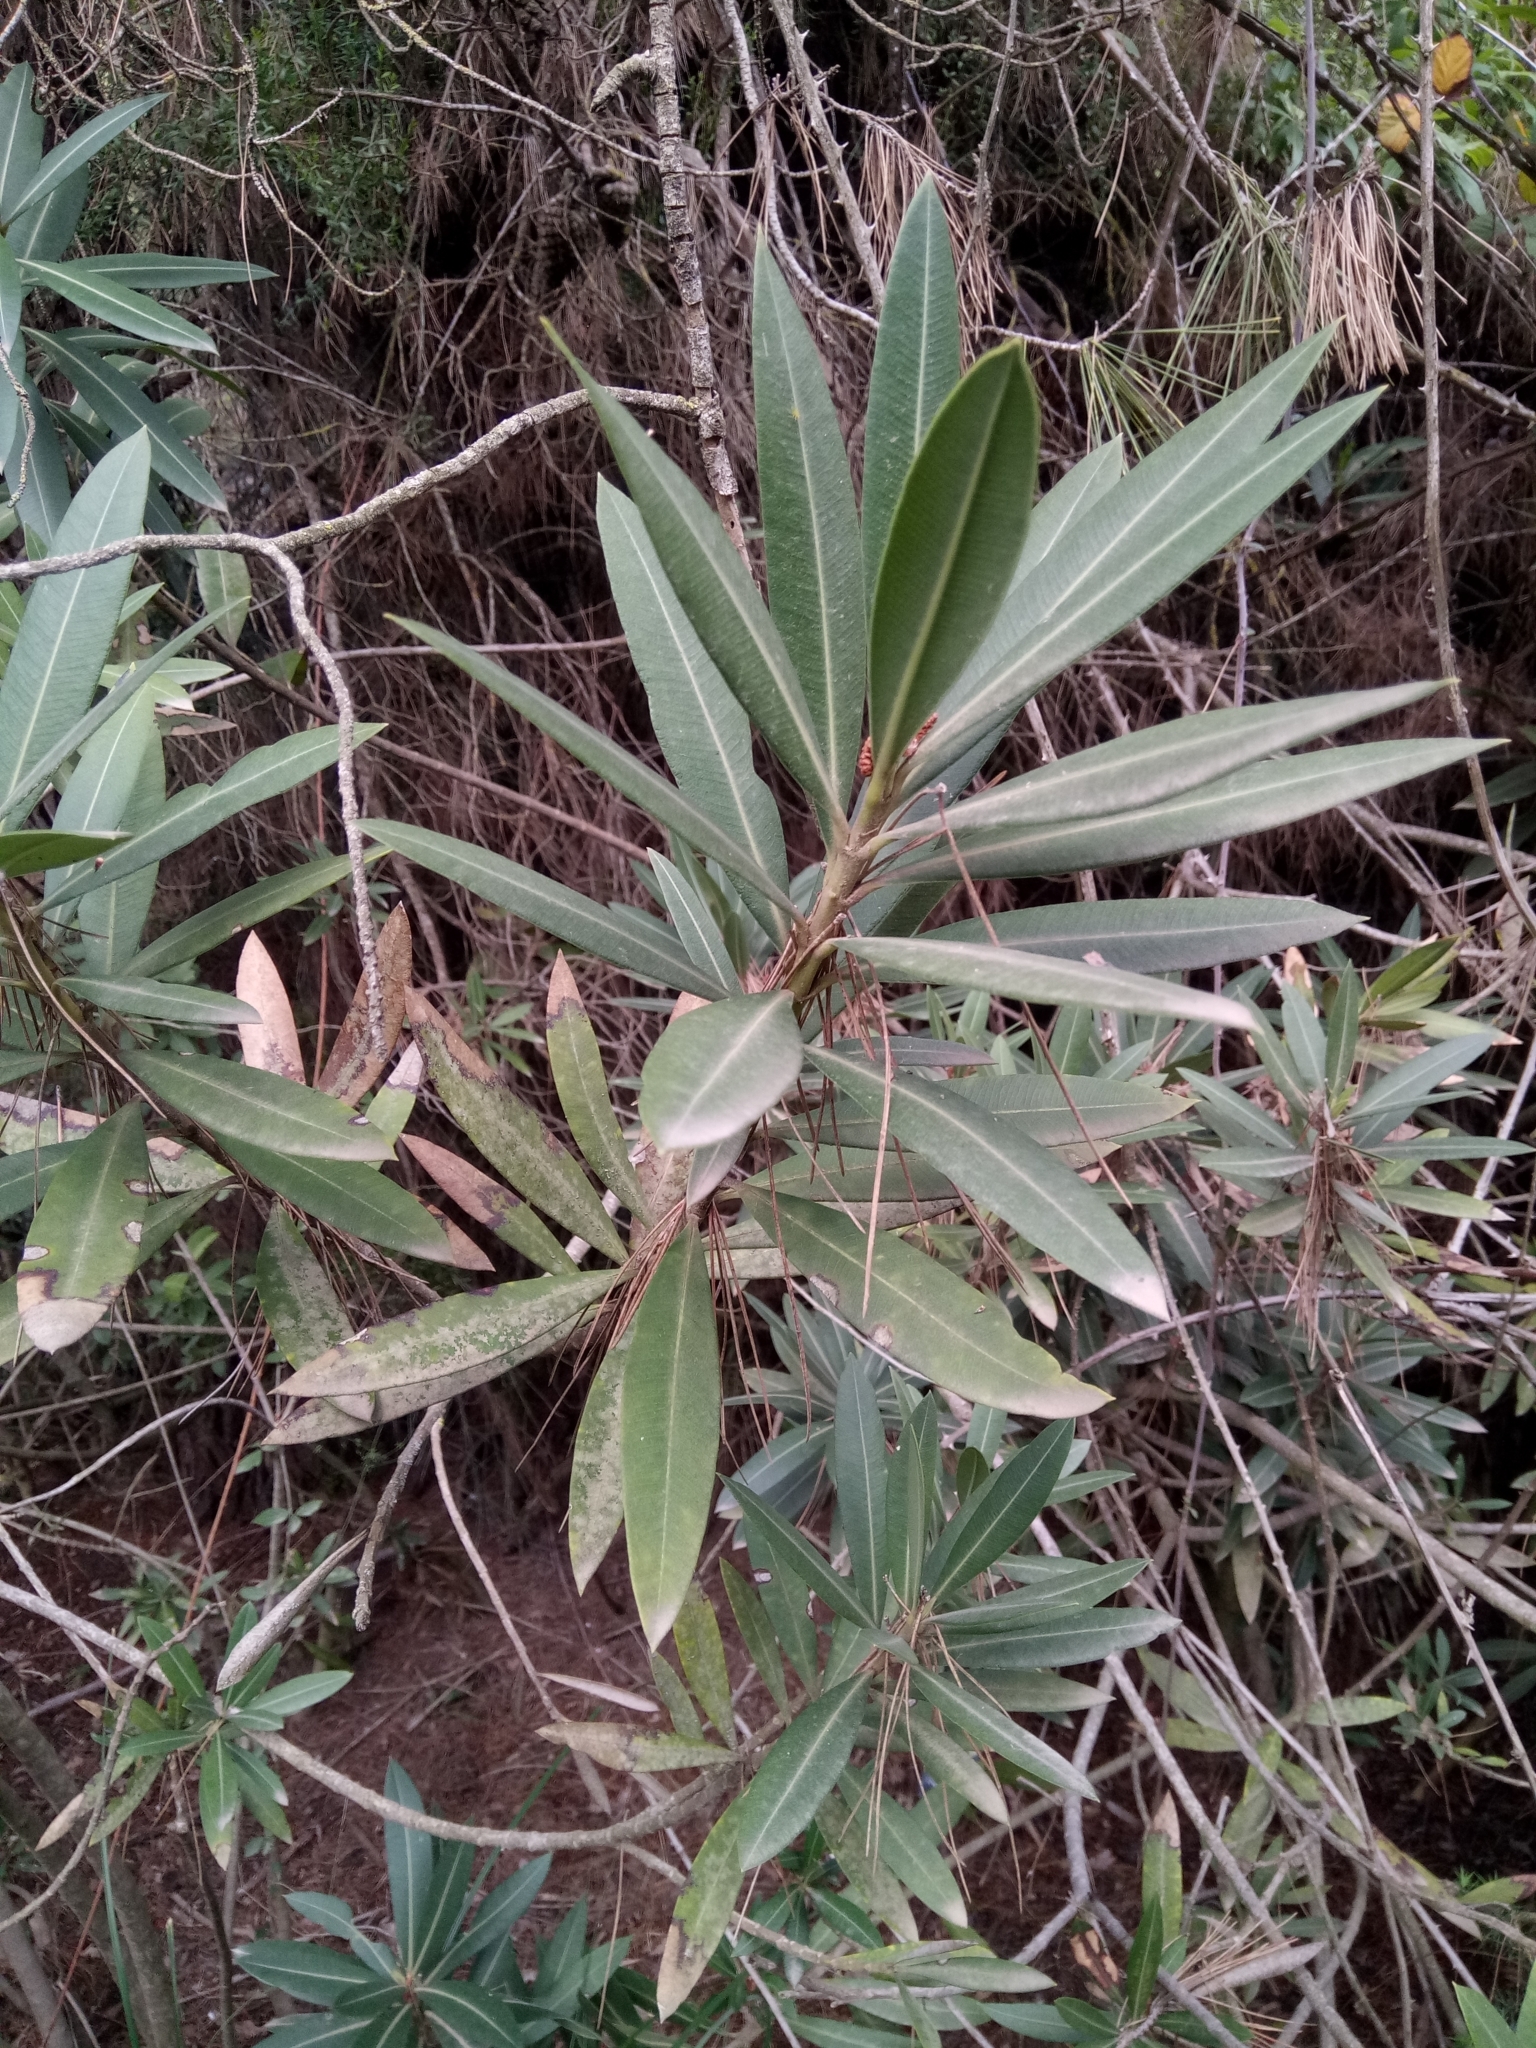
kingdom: Plantae
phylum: Tracheophyta
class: Magnoliopsida
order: Gentianales
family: Apocynaceae
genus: Nerium
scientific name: Nerium oleander
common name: Oleander
